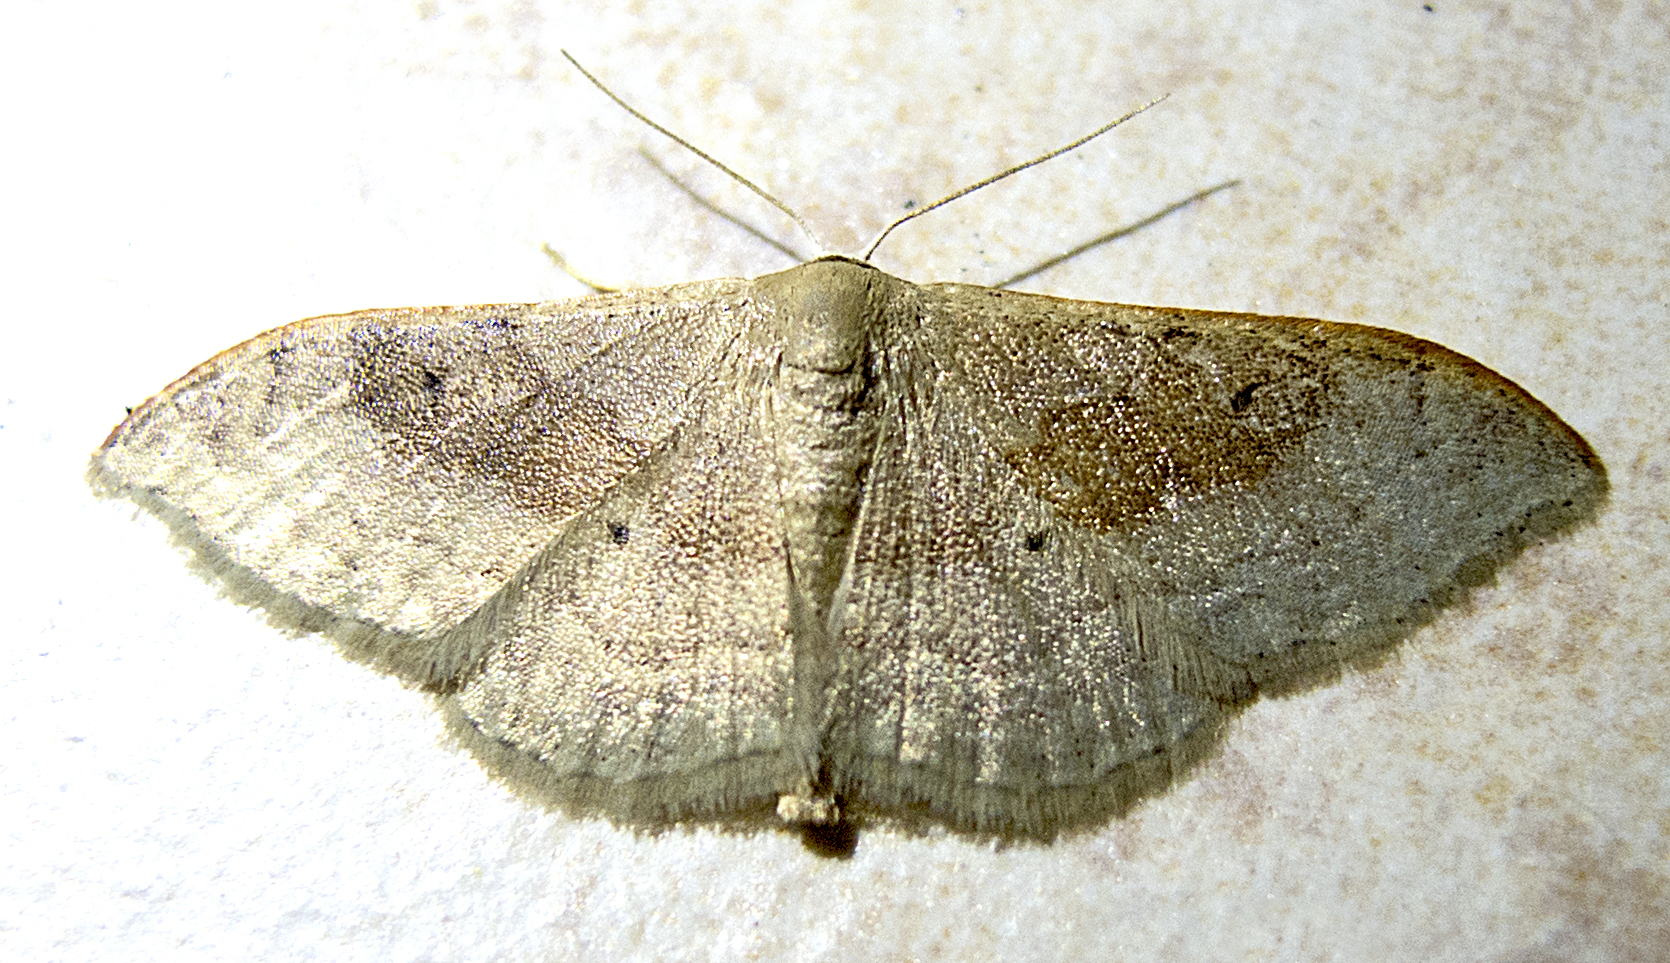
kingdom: Animalia
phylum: Arthropoda
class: Insecta
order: Lepidoptera
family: Geometridae
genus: Idaea
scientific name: Idaea degeneraria
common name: Portland ribbon wave
